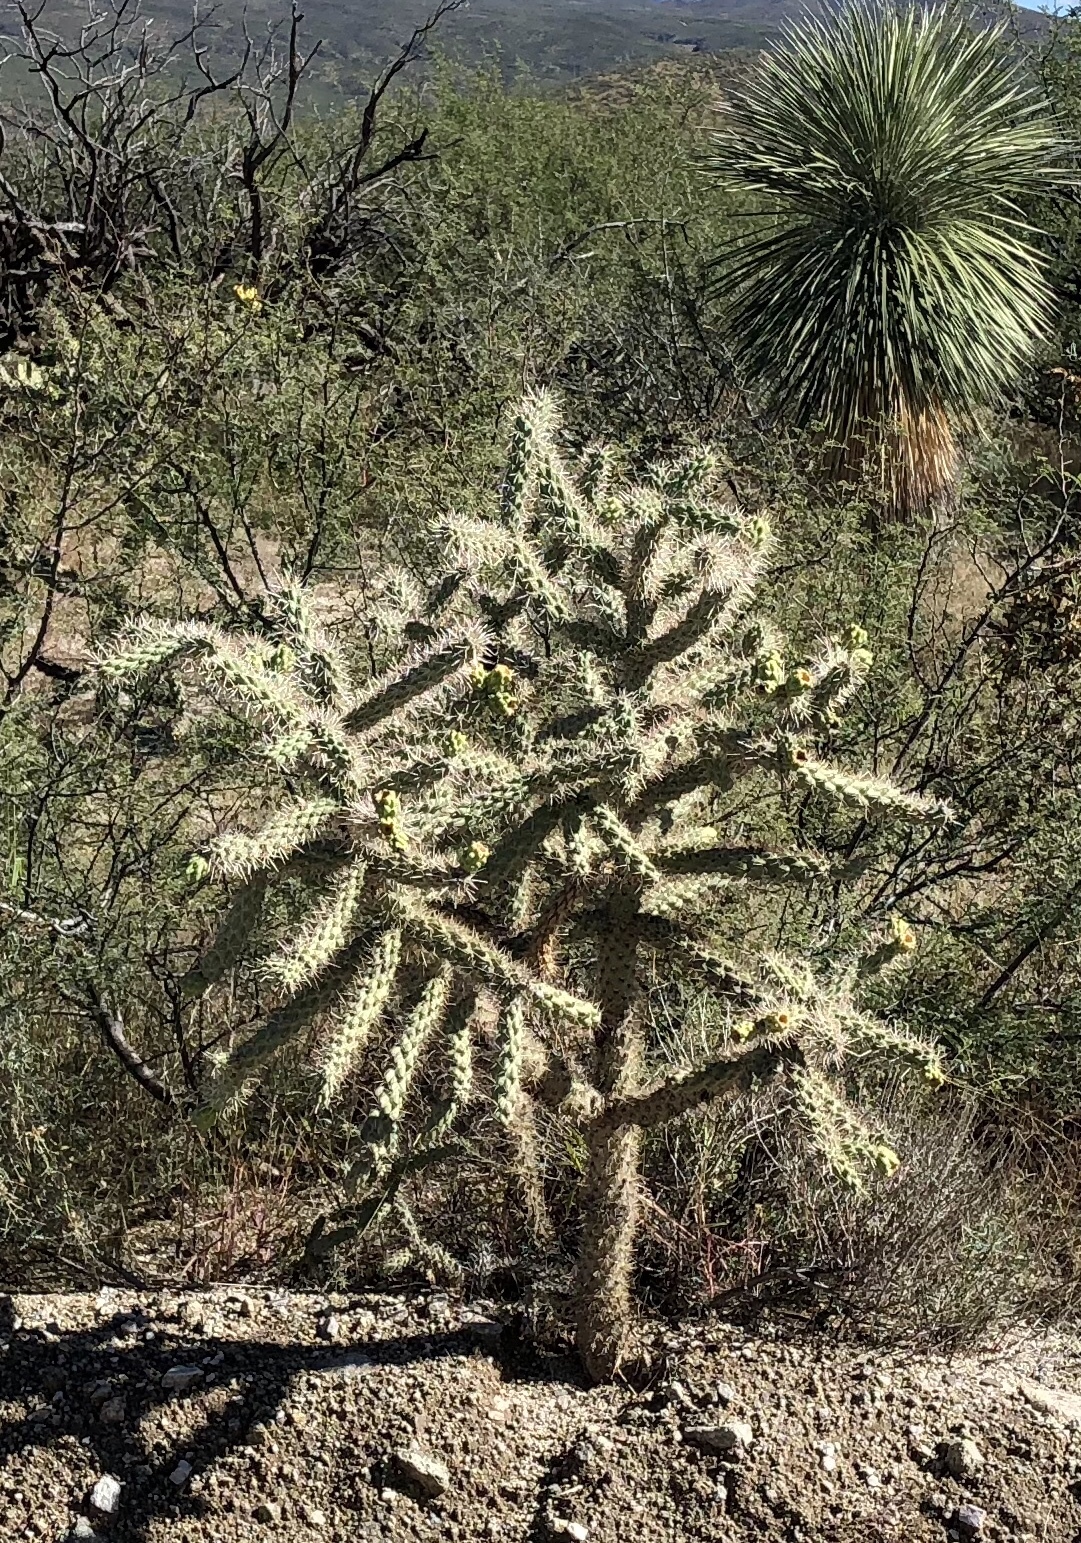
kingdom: Plantae
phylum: Tracheophyta
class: Magnoliopsida
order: Caryophyllales
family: Cactaceae
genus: Cylindropuntia
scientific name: Cylindropuntia imbricata
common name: Candelabrum cactus
